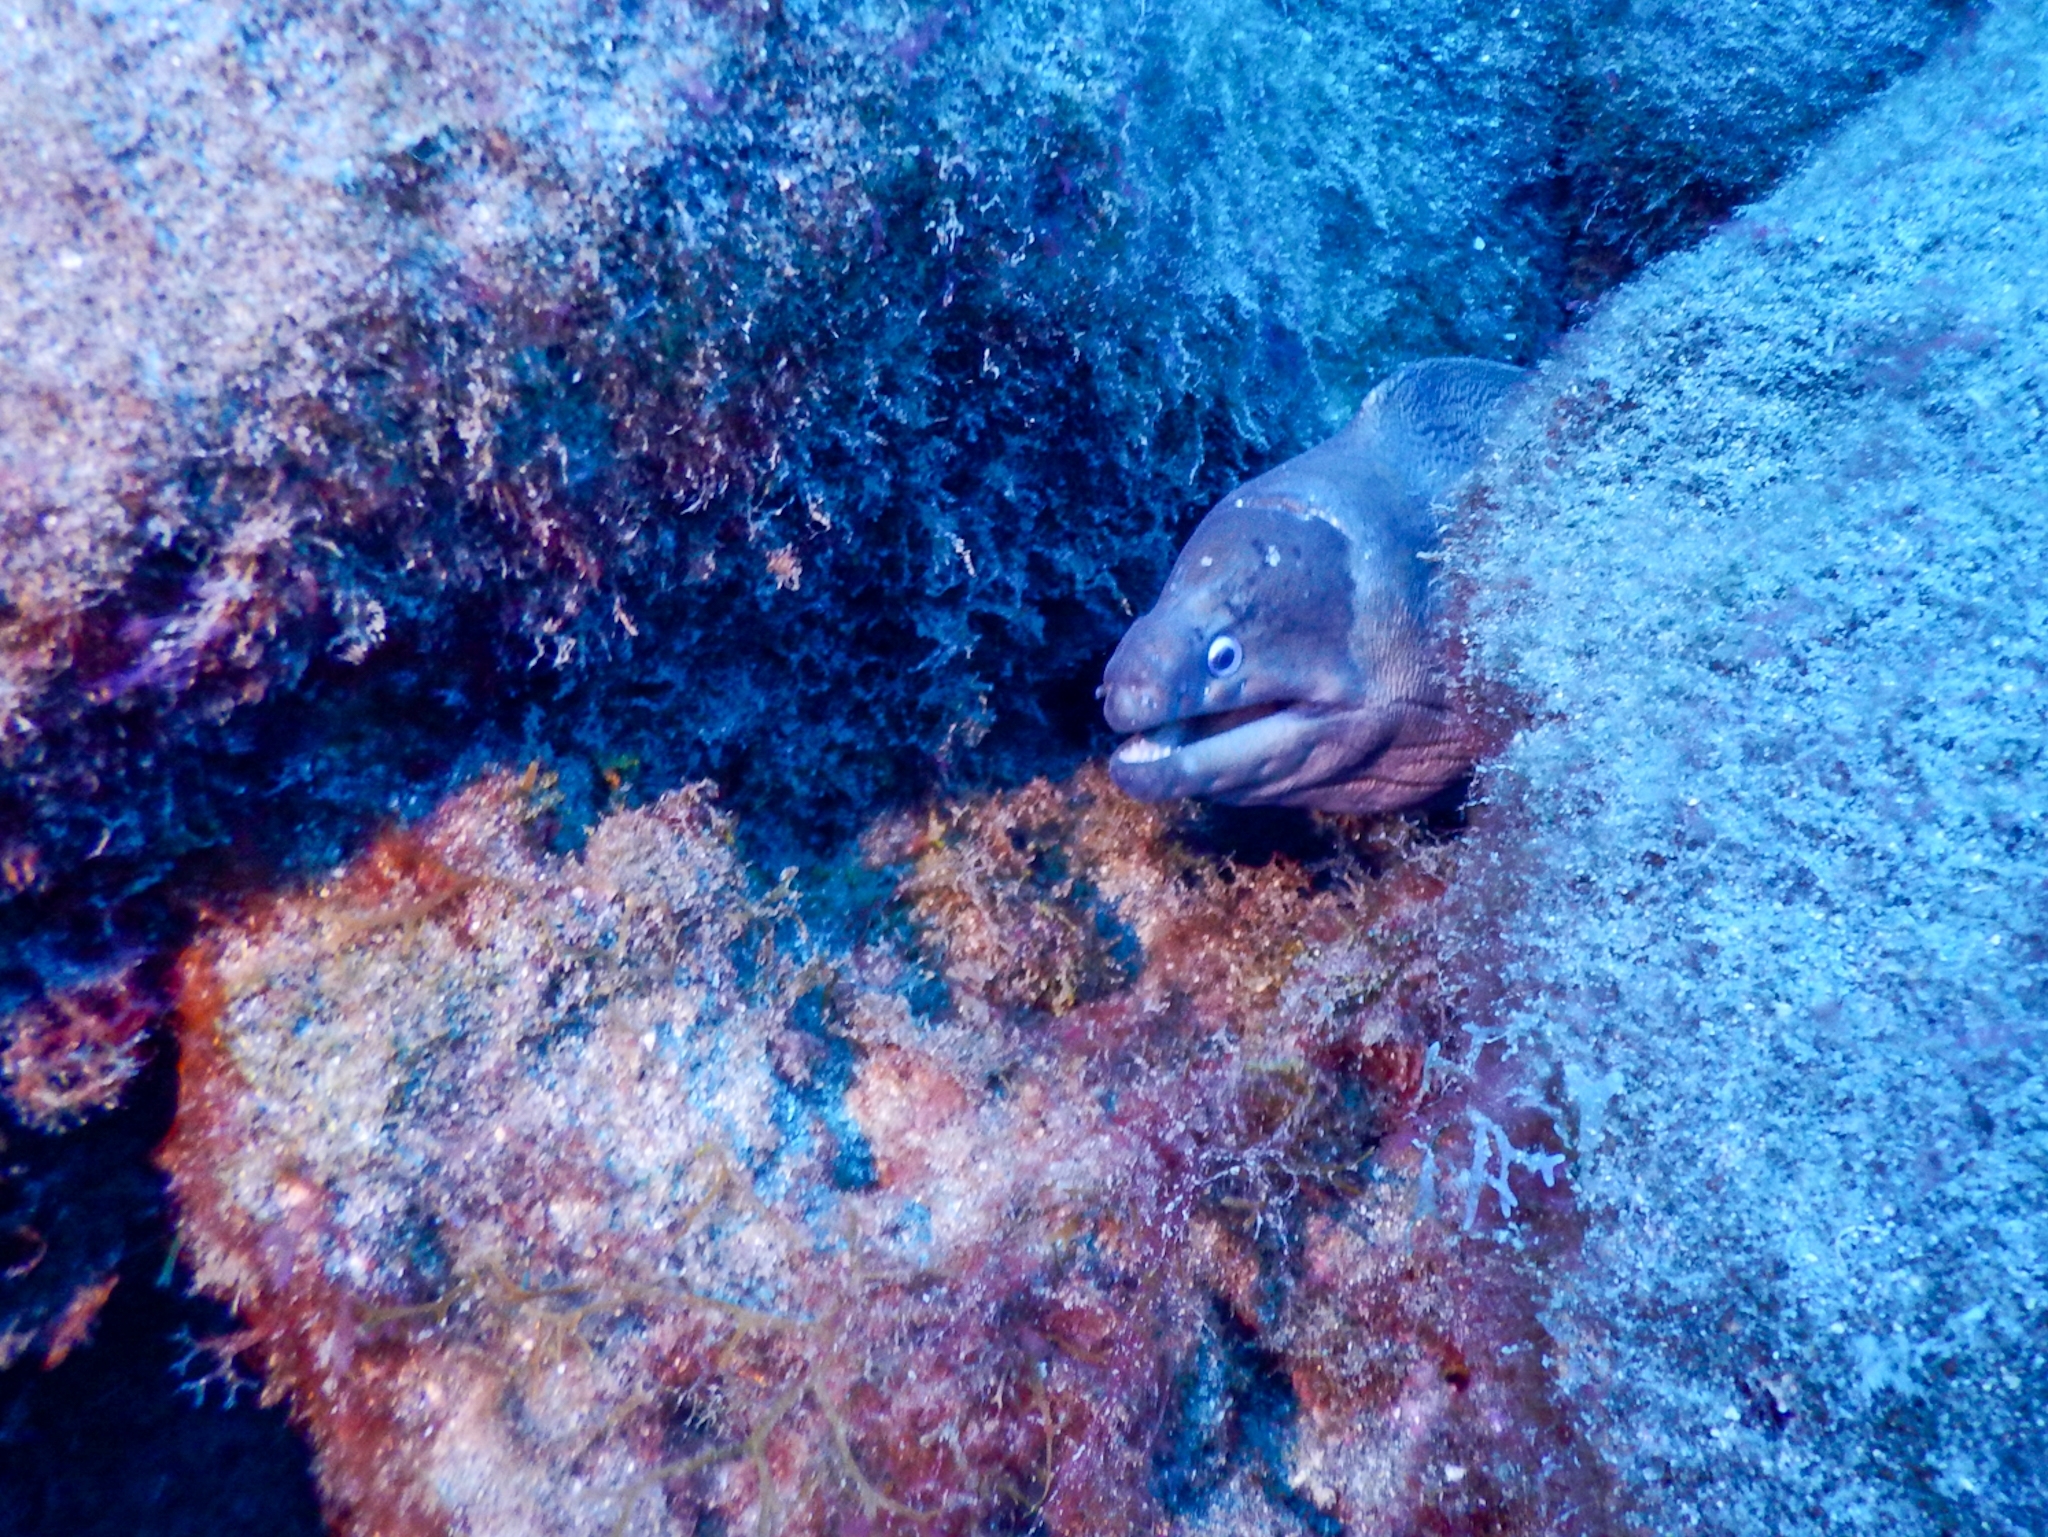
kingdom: Animalia
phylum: Chordata
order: Anguilliformes
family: Muraenidae
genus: Gymnothorax
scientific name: Gymnothorax unicolor
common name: Brown moray
